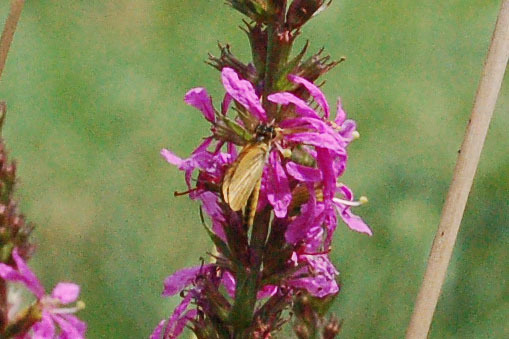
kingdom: Animalia
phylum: Arthropoda
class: Insecta
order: Lepidoptera
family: Hesperiidae
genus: Ancyloxypha
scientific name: Ancyloxypha numitor
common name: Least skipper
